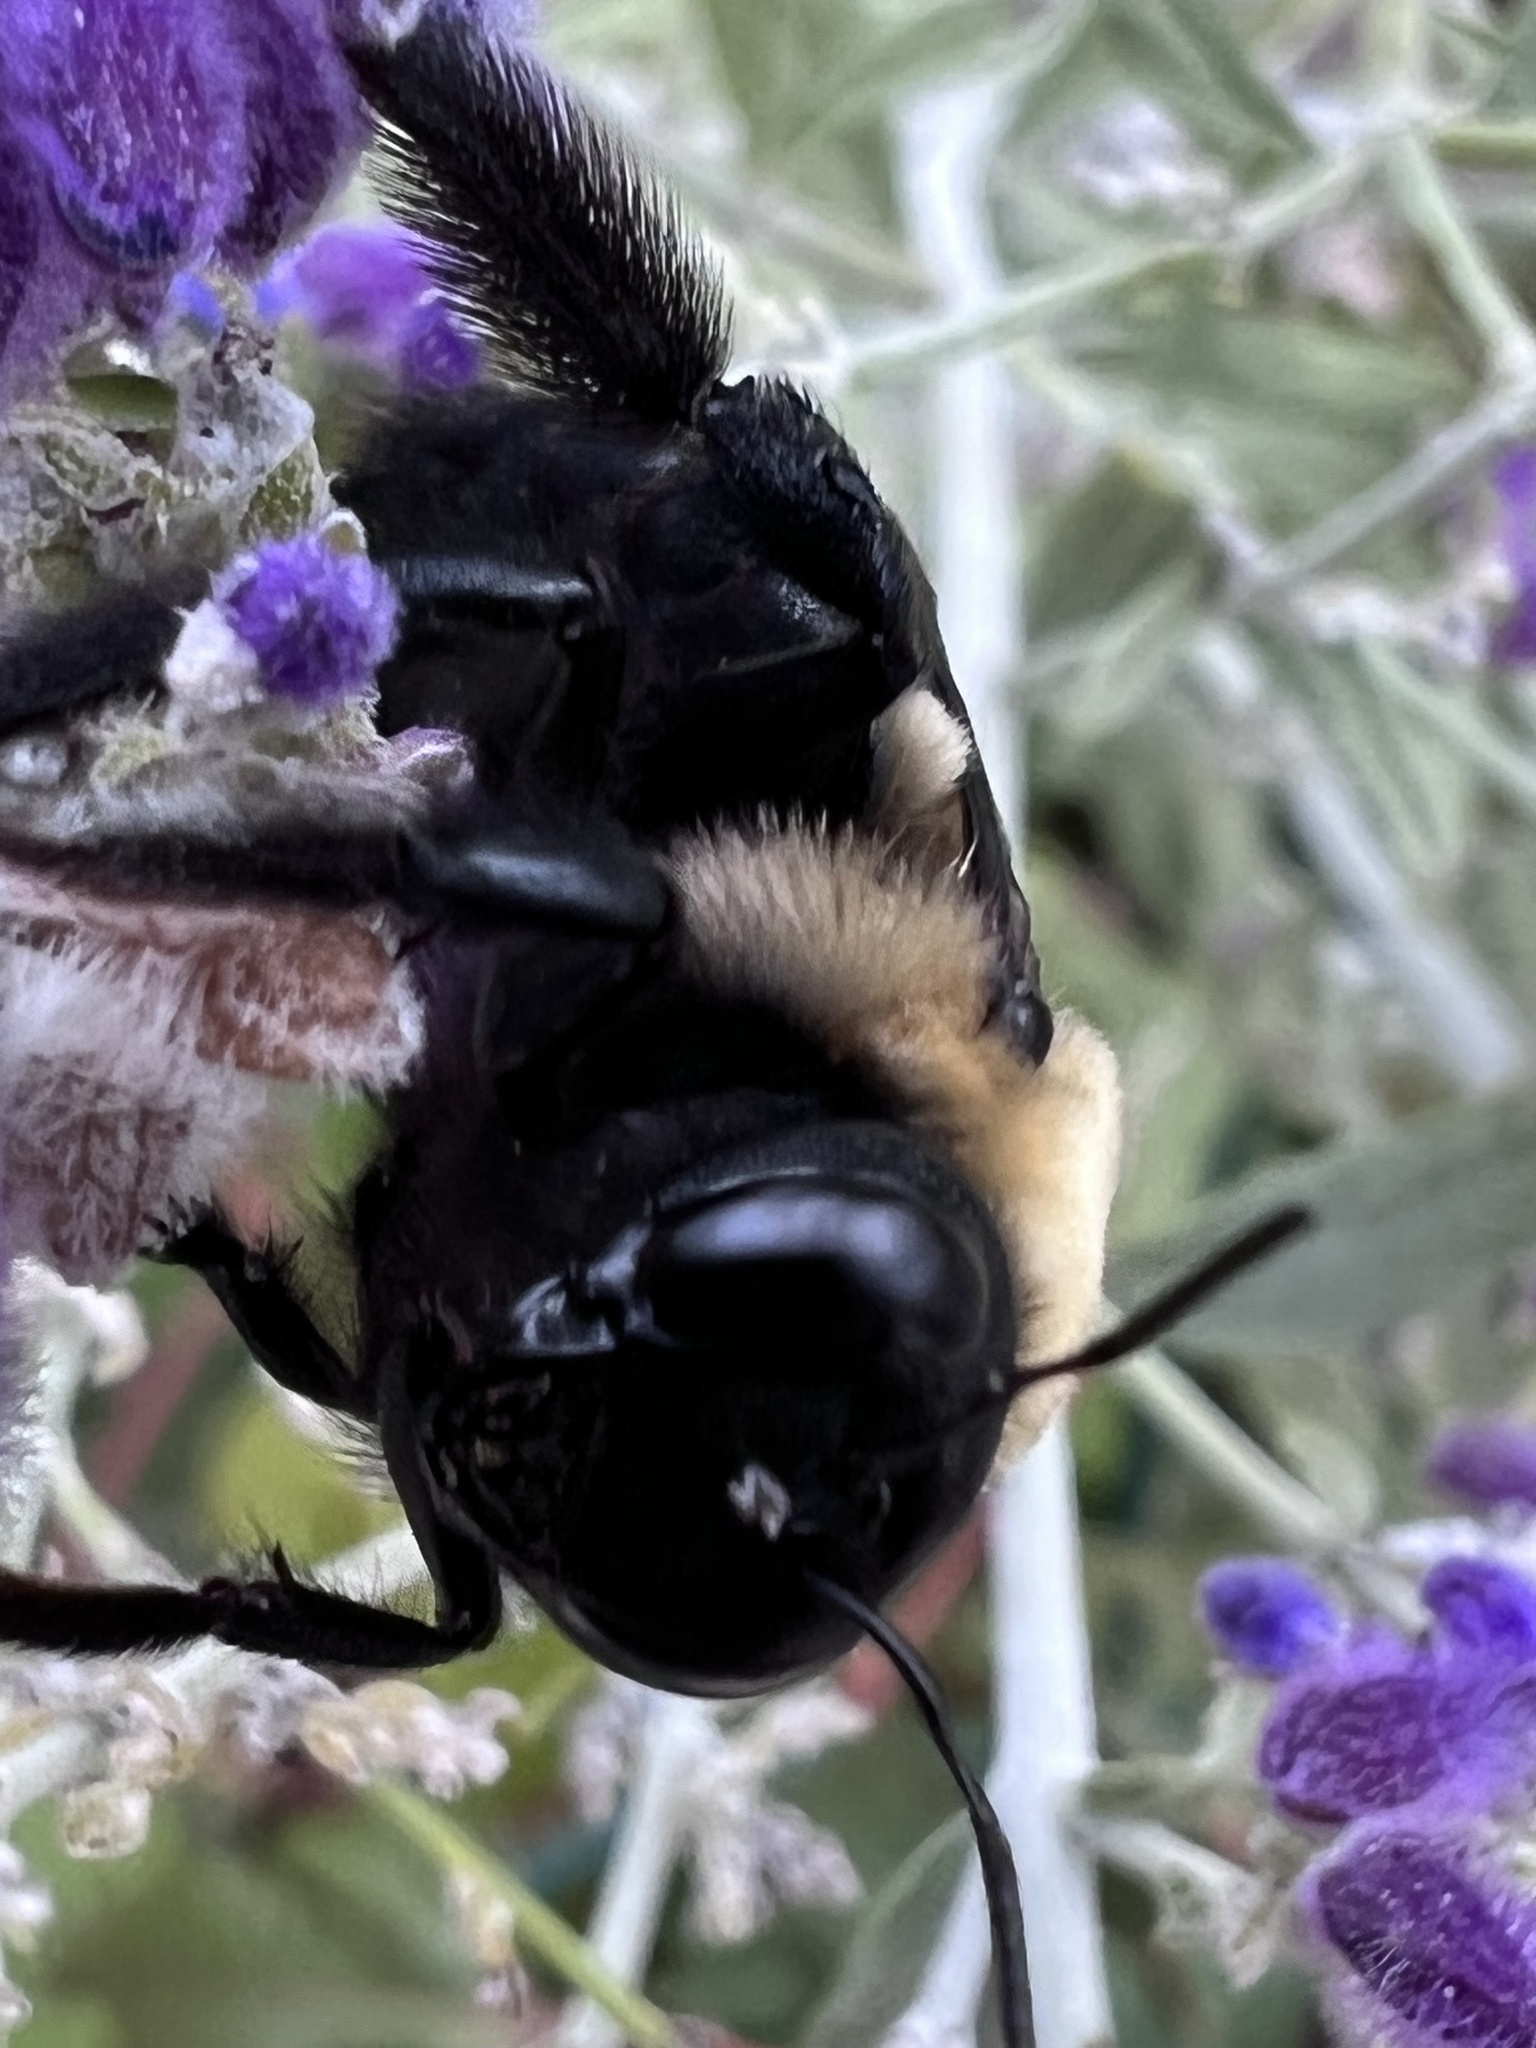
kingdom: Animalia
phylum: Arthropoda
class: Insecta
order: Hymenoptera
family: Apidae
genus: Xylocopa
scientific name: Xylocopa virginica
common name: Carpenter bee
